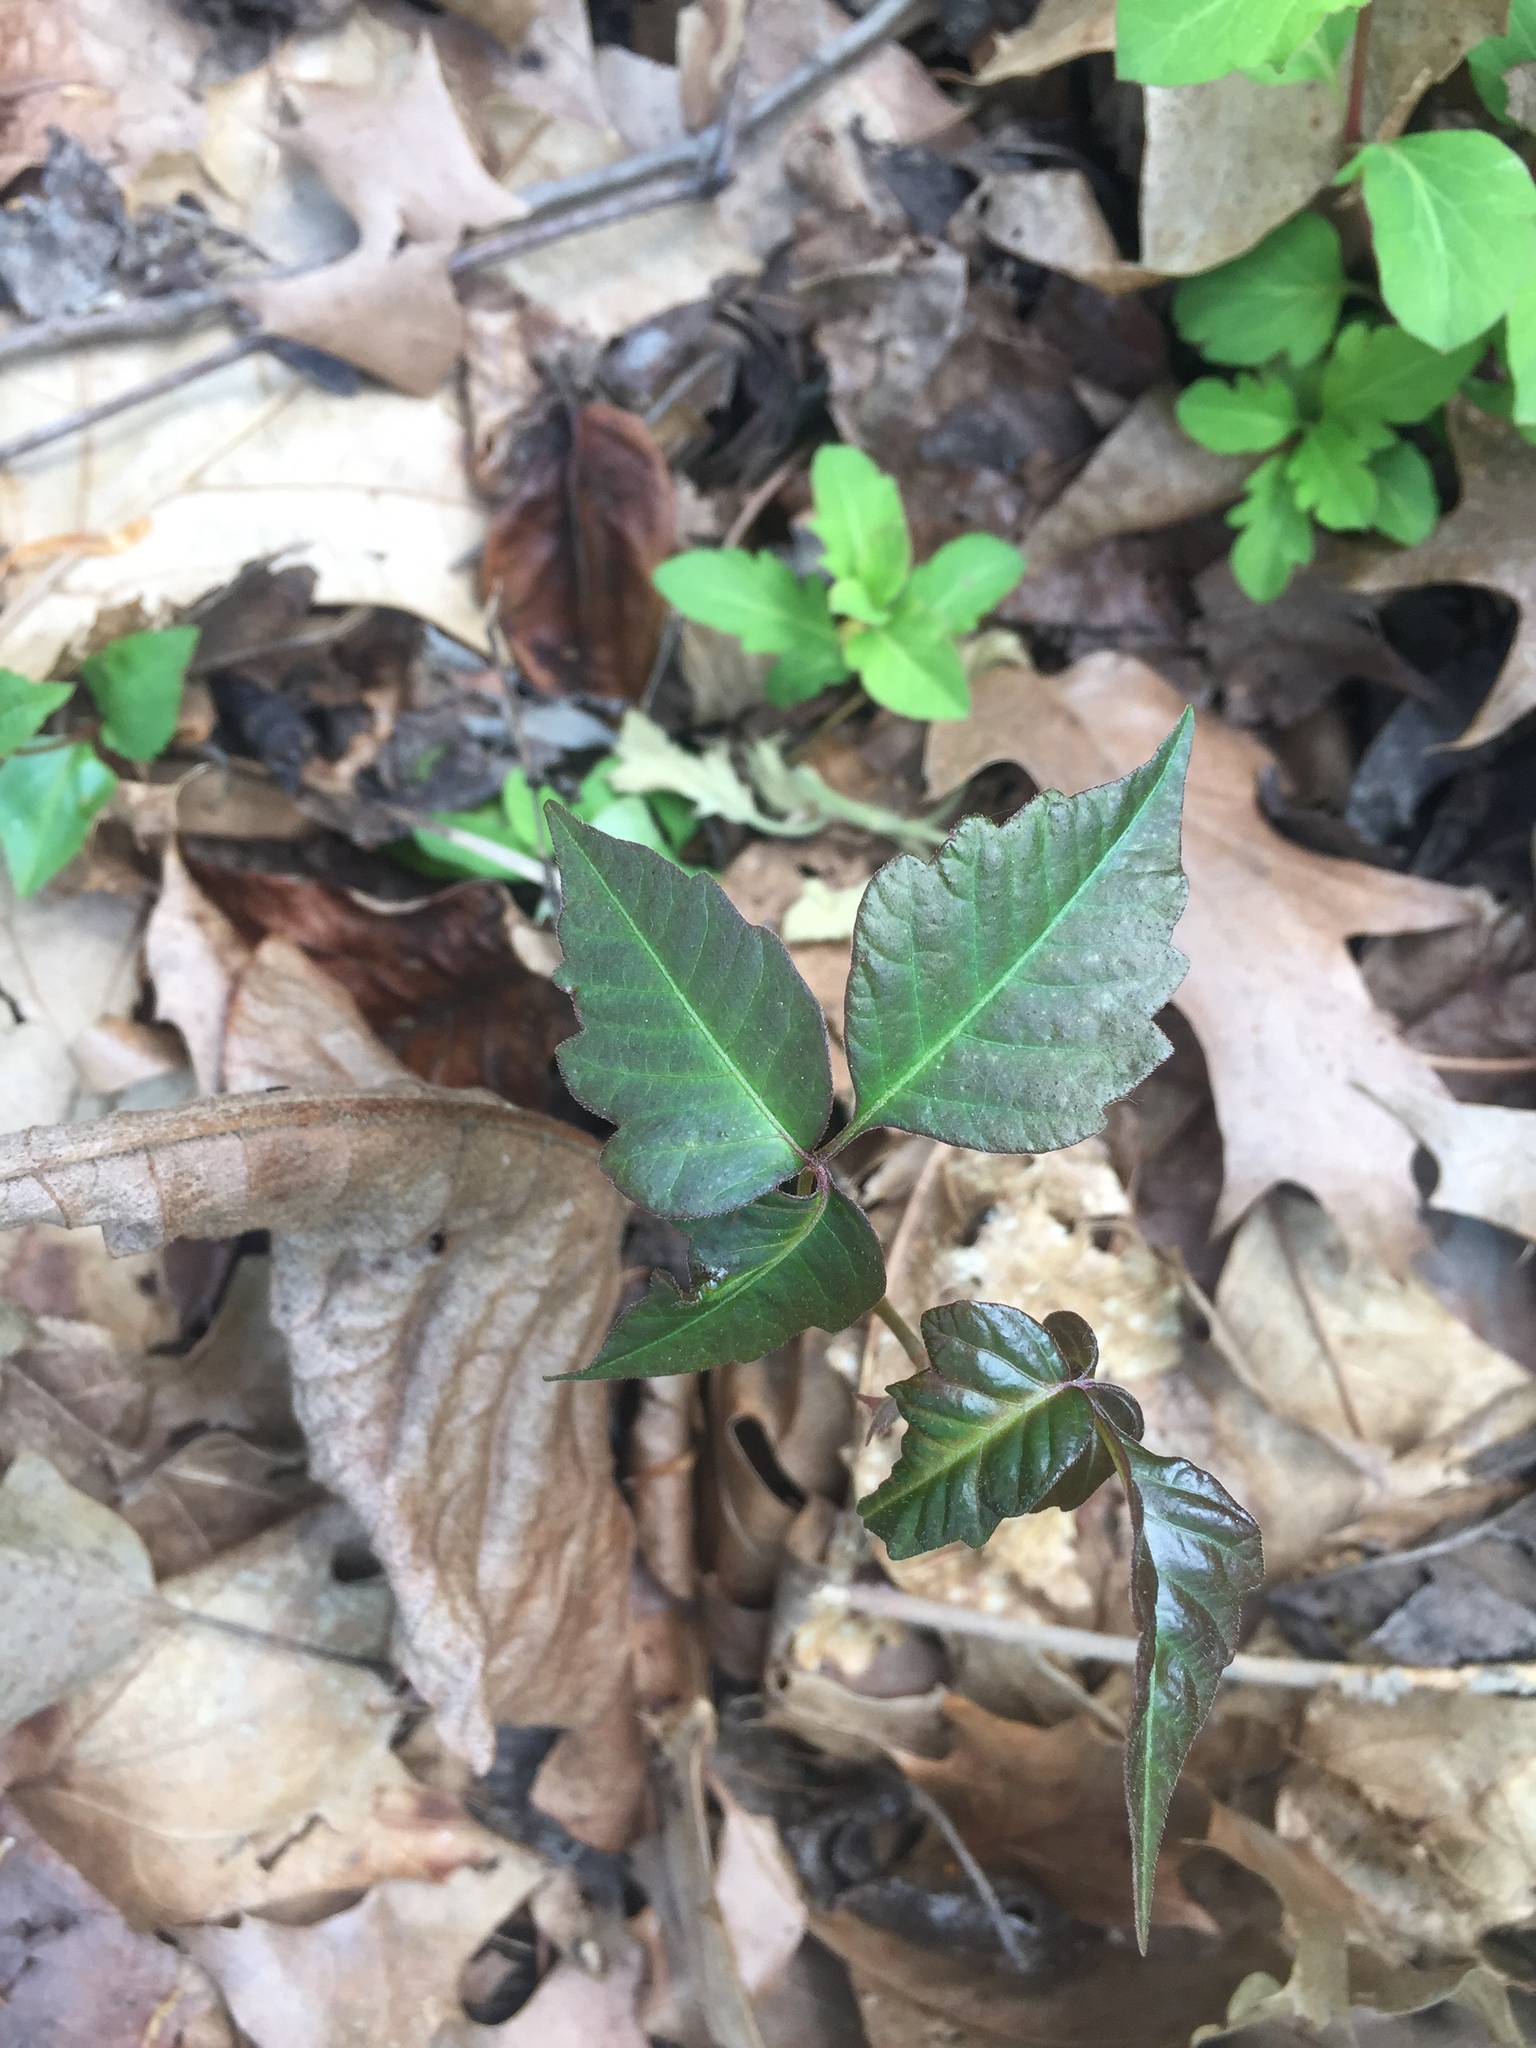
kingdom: Plantae
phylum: Tracheophyta
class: Magnoliopsida
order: Sapindales
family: Anacardiaceae
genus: Toxicodendron
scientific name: Toxicodendron radicans
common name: Poison ivy
